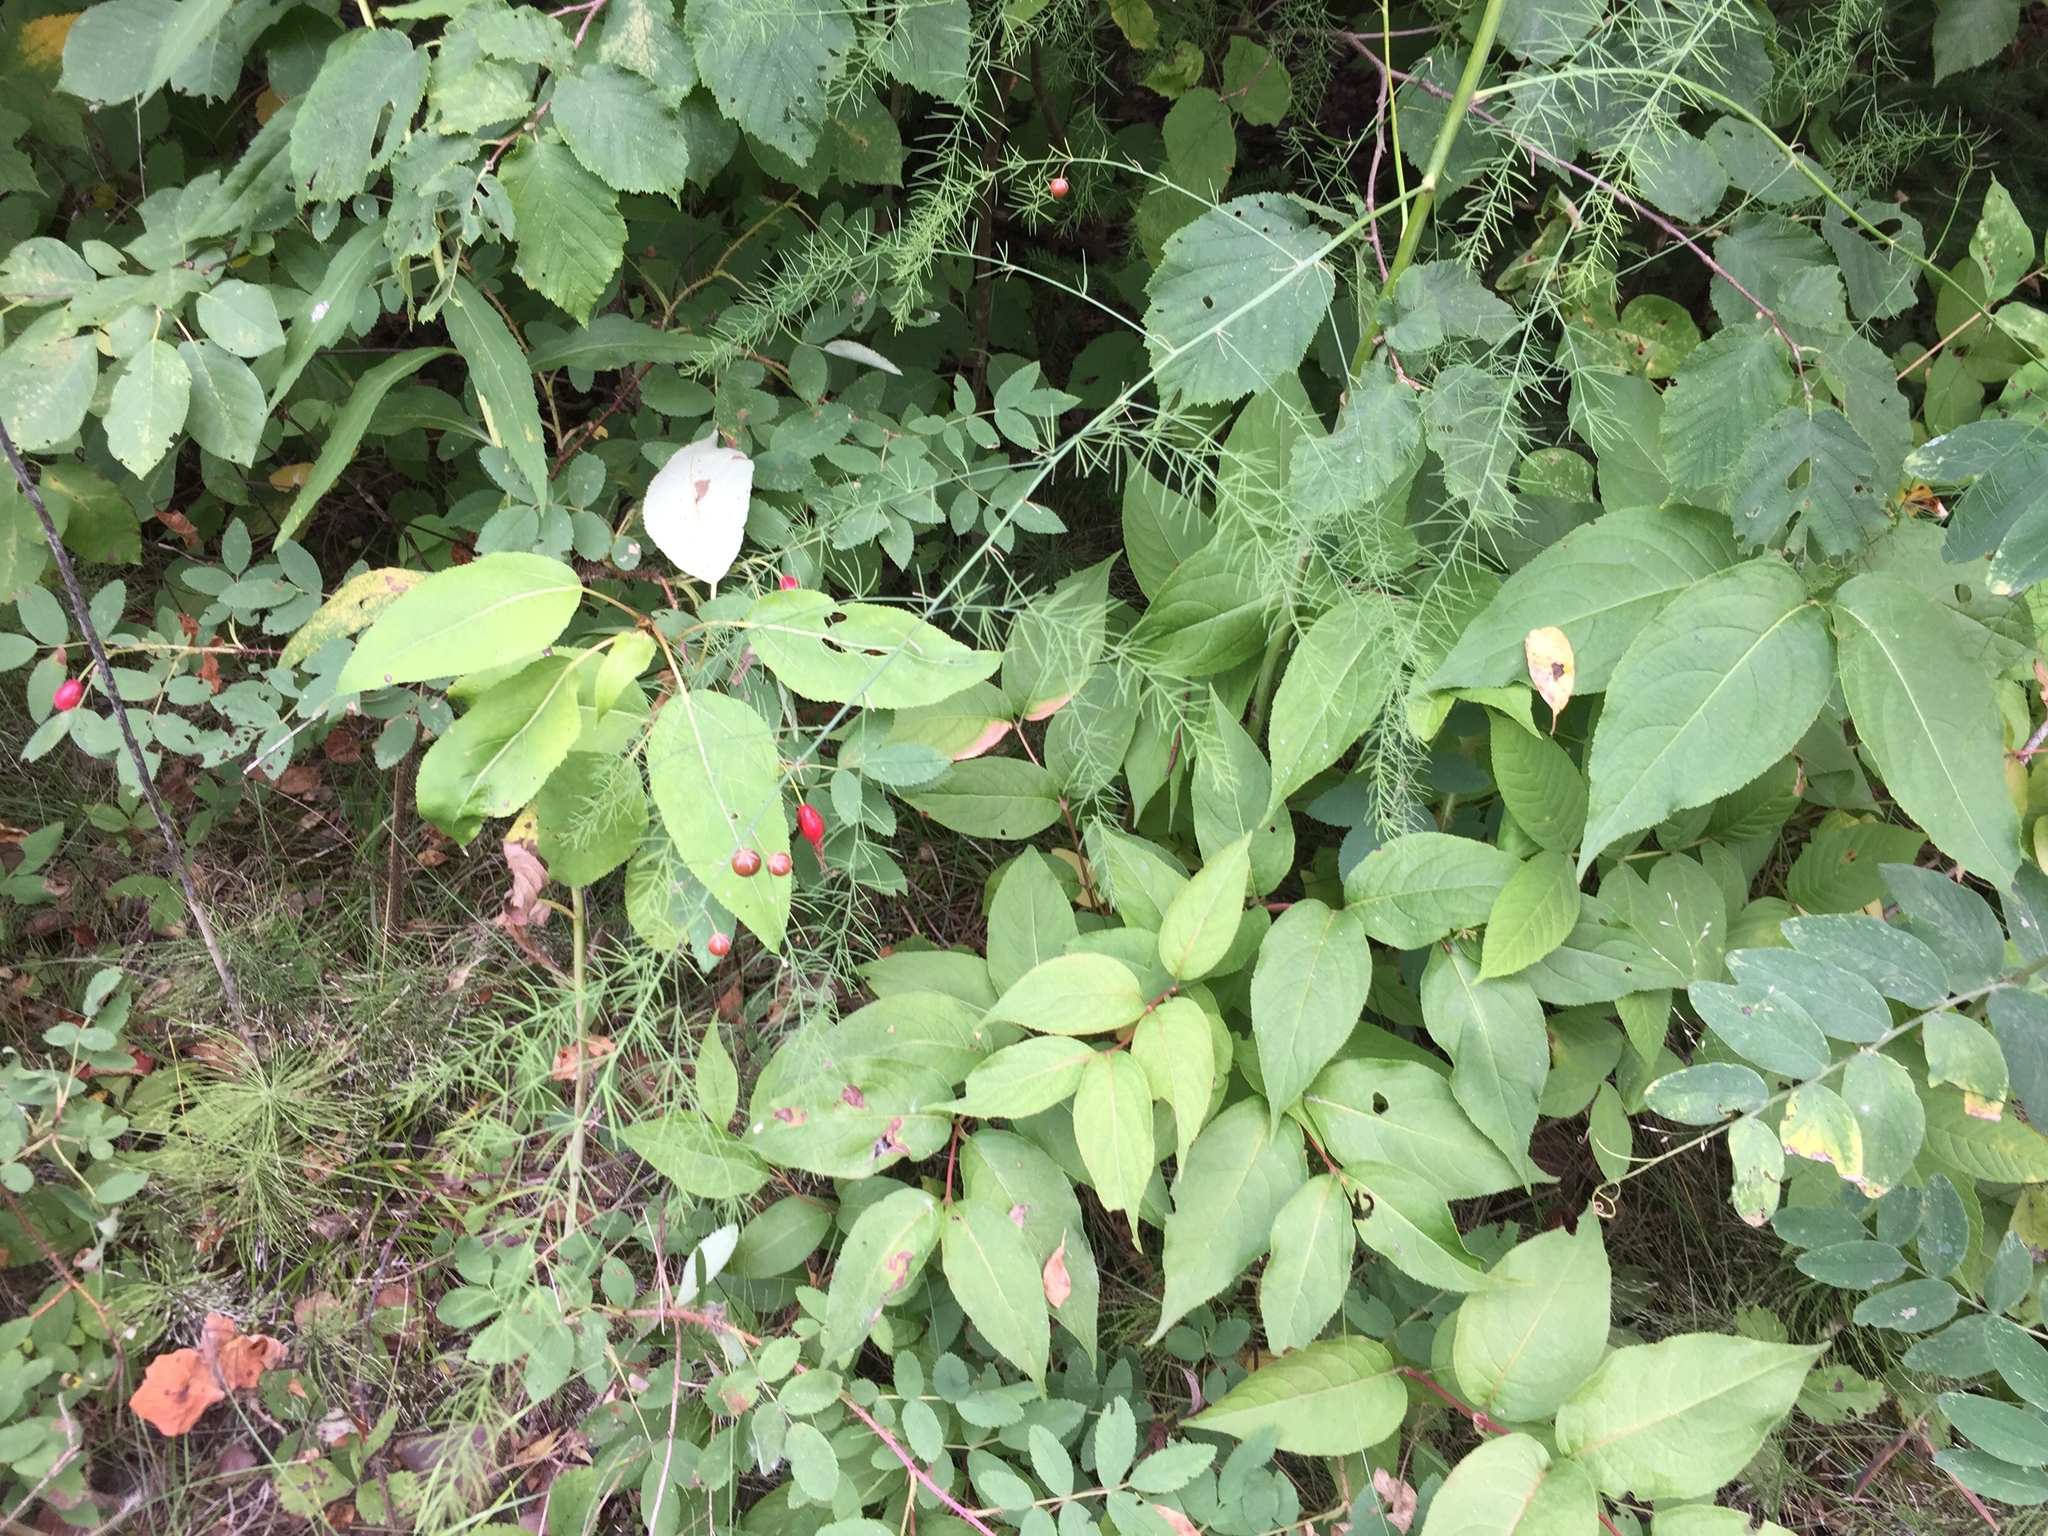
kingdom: Plantae
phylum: Tracheophyta
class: Liliopsida
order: Asparagales
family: Asparagaceae
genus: Asparagus
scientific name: Asparagus officinalis
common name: Garden asparagus
